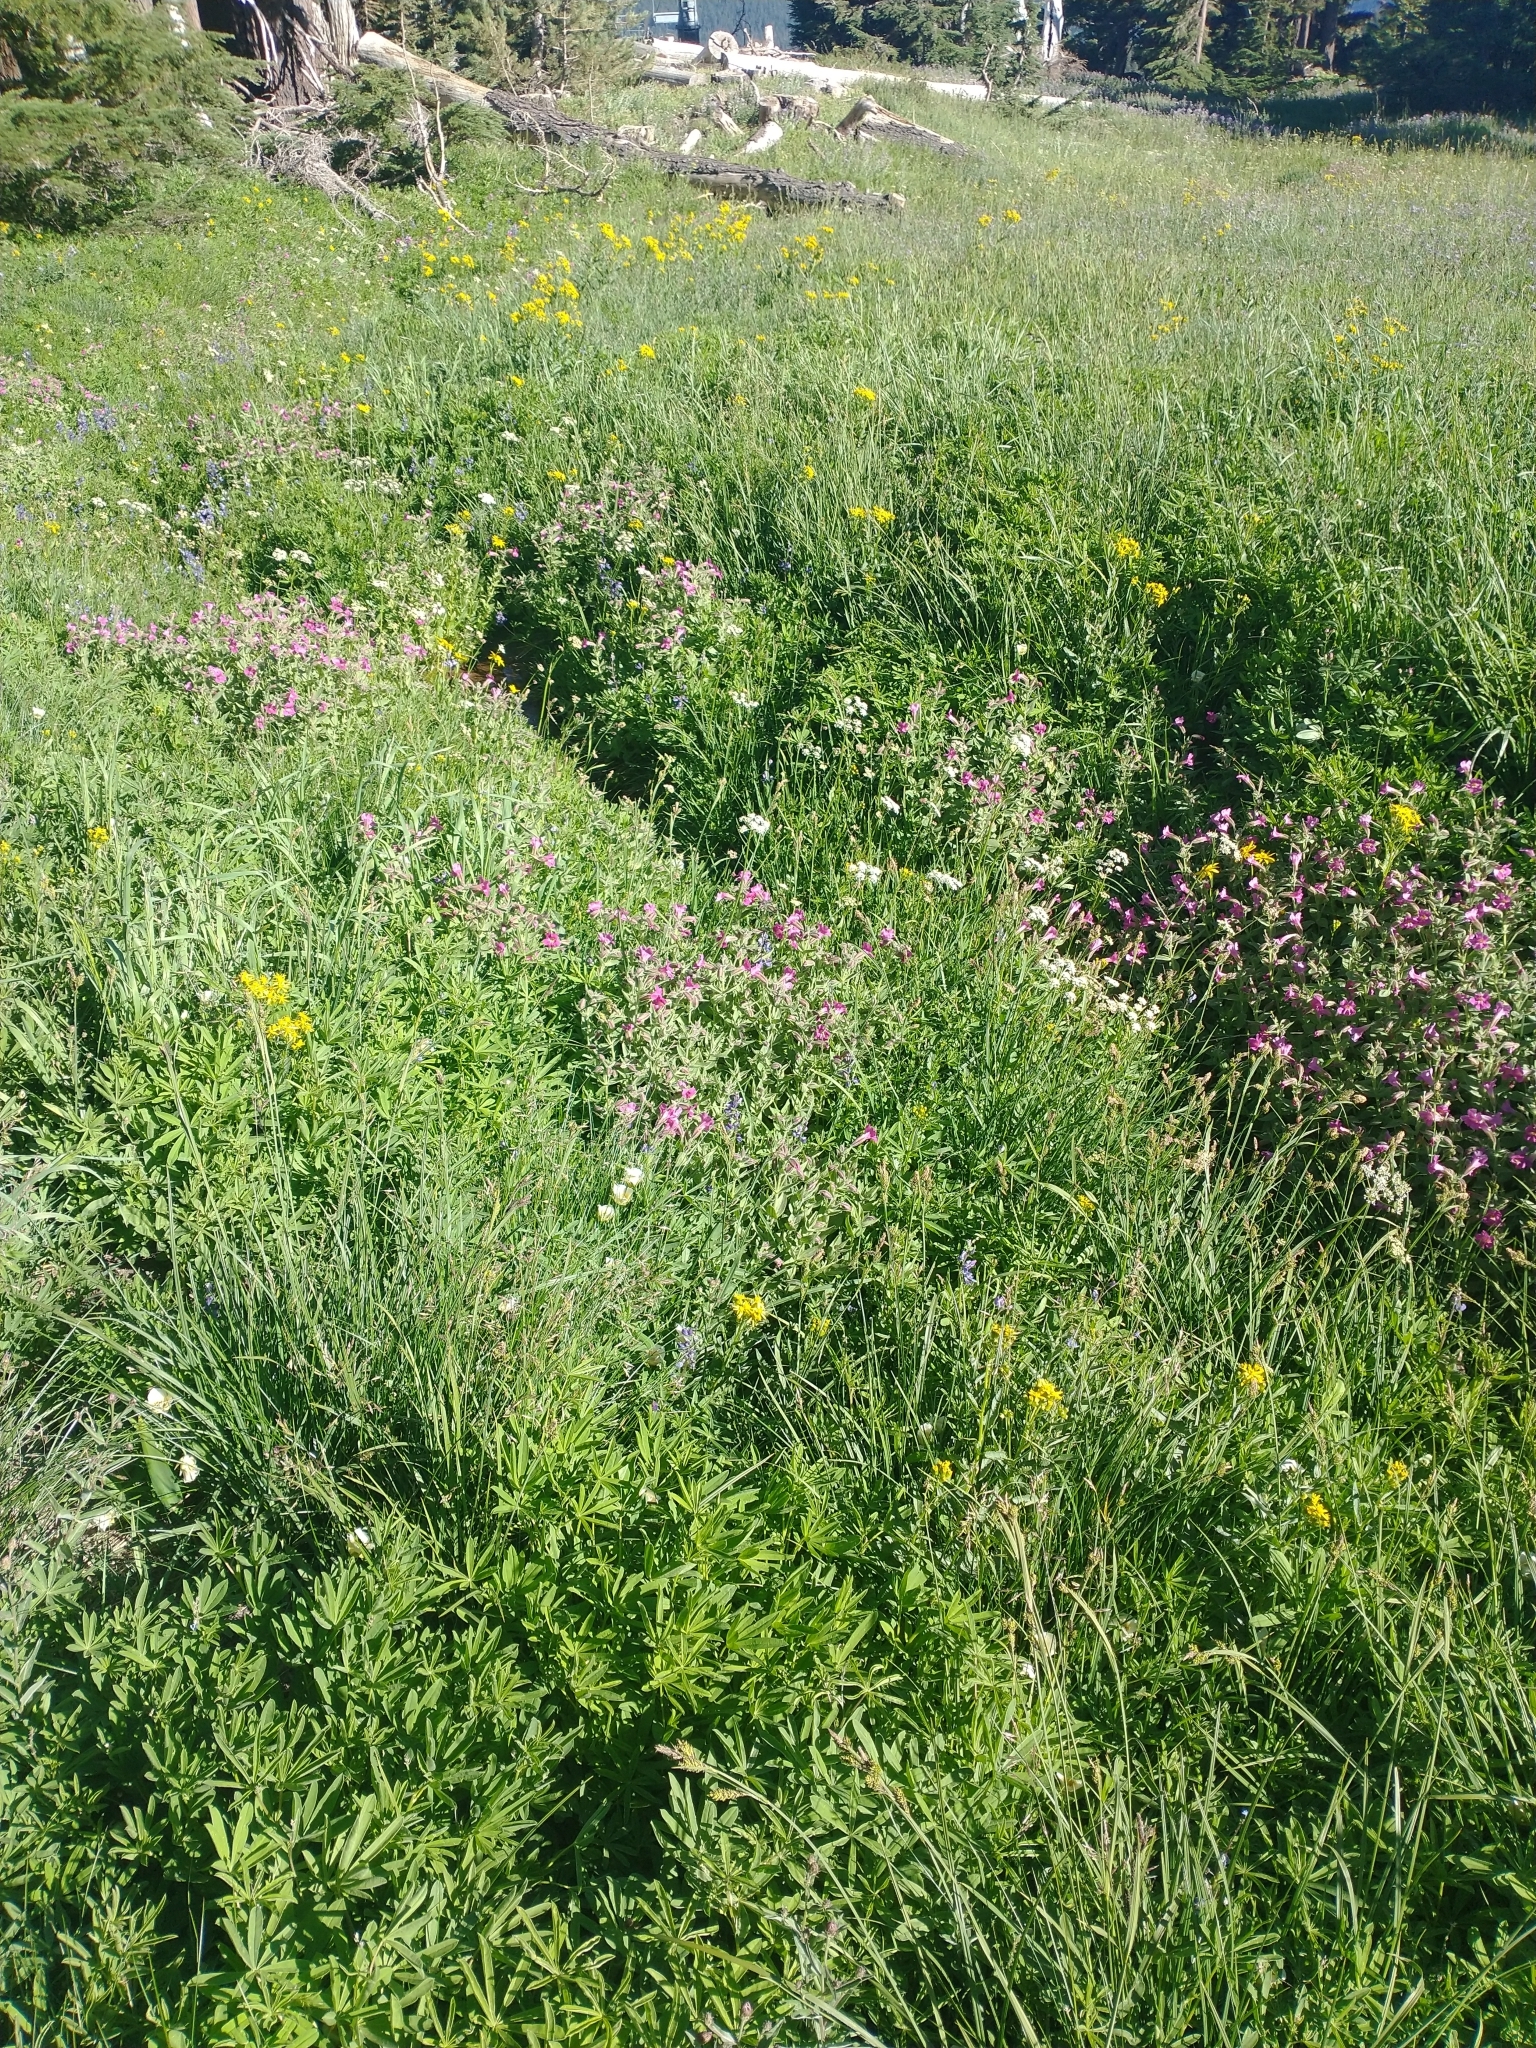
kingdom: Plantae
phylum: Tracheophyta
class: Magnoliopsida
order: Lamiales
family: Phrymaceae
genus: Erythranthe
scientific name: Erythranthe lewisii
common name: Lewis's monkey-flower
